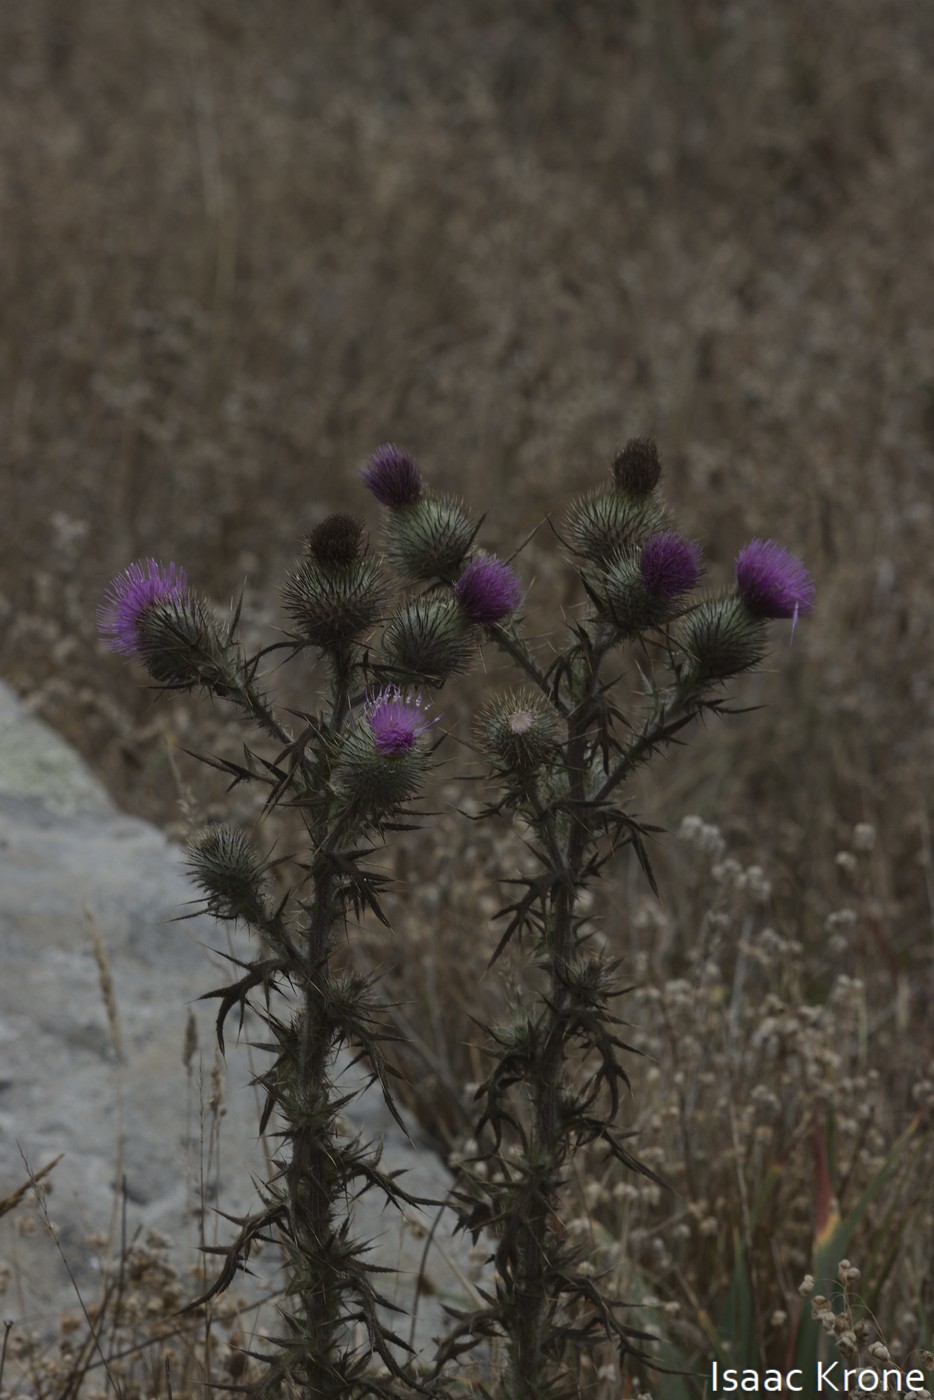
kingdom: Plantae
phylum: Tracheophyta
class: Magnoliopsida
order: Asterales
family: Asteraceae
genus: Cirsium
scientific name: Cirsium vulgare
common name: Bull thistle
